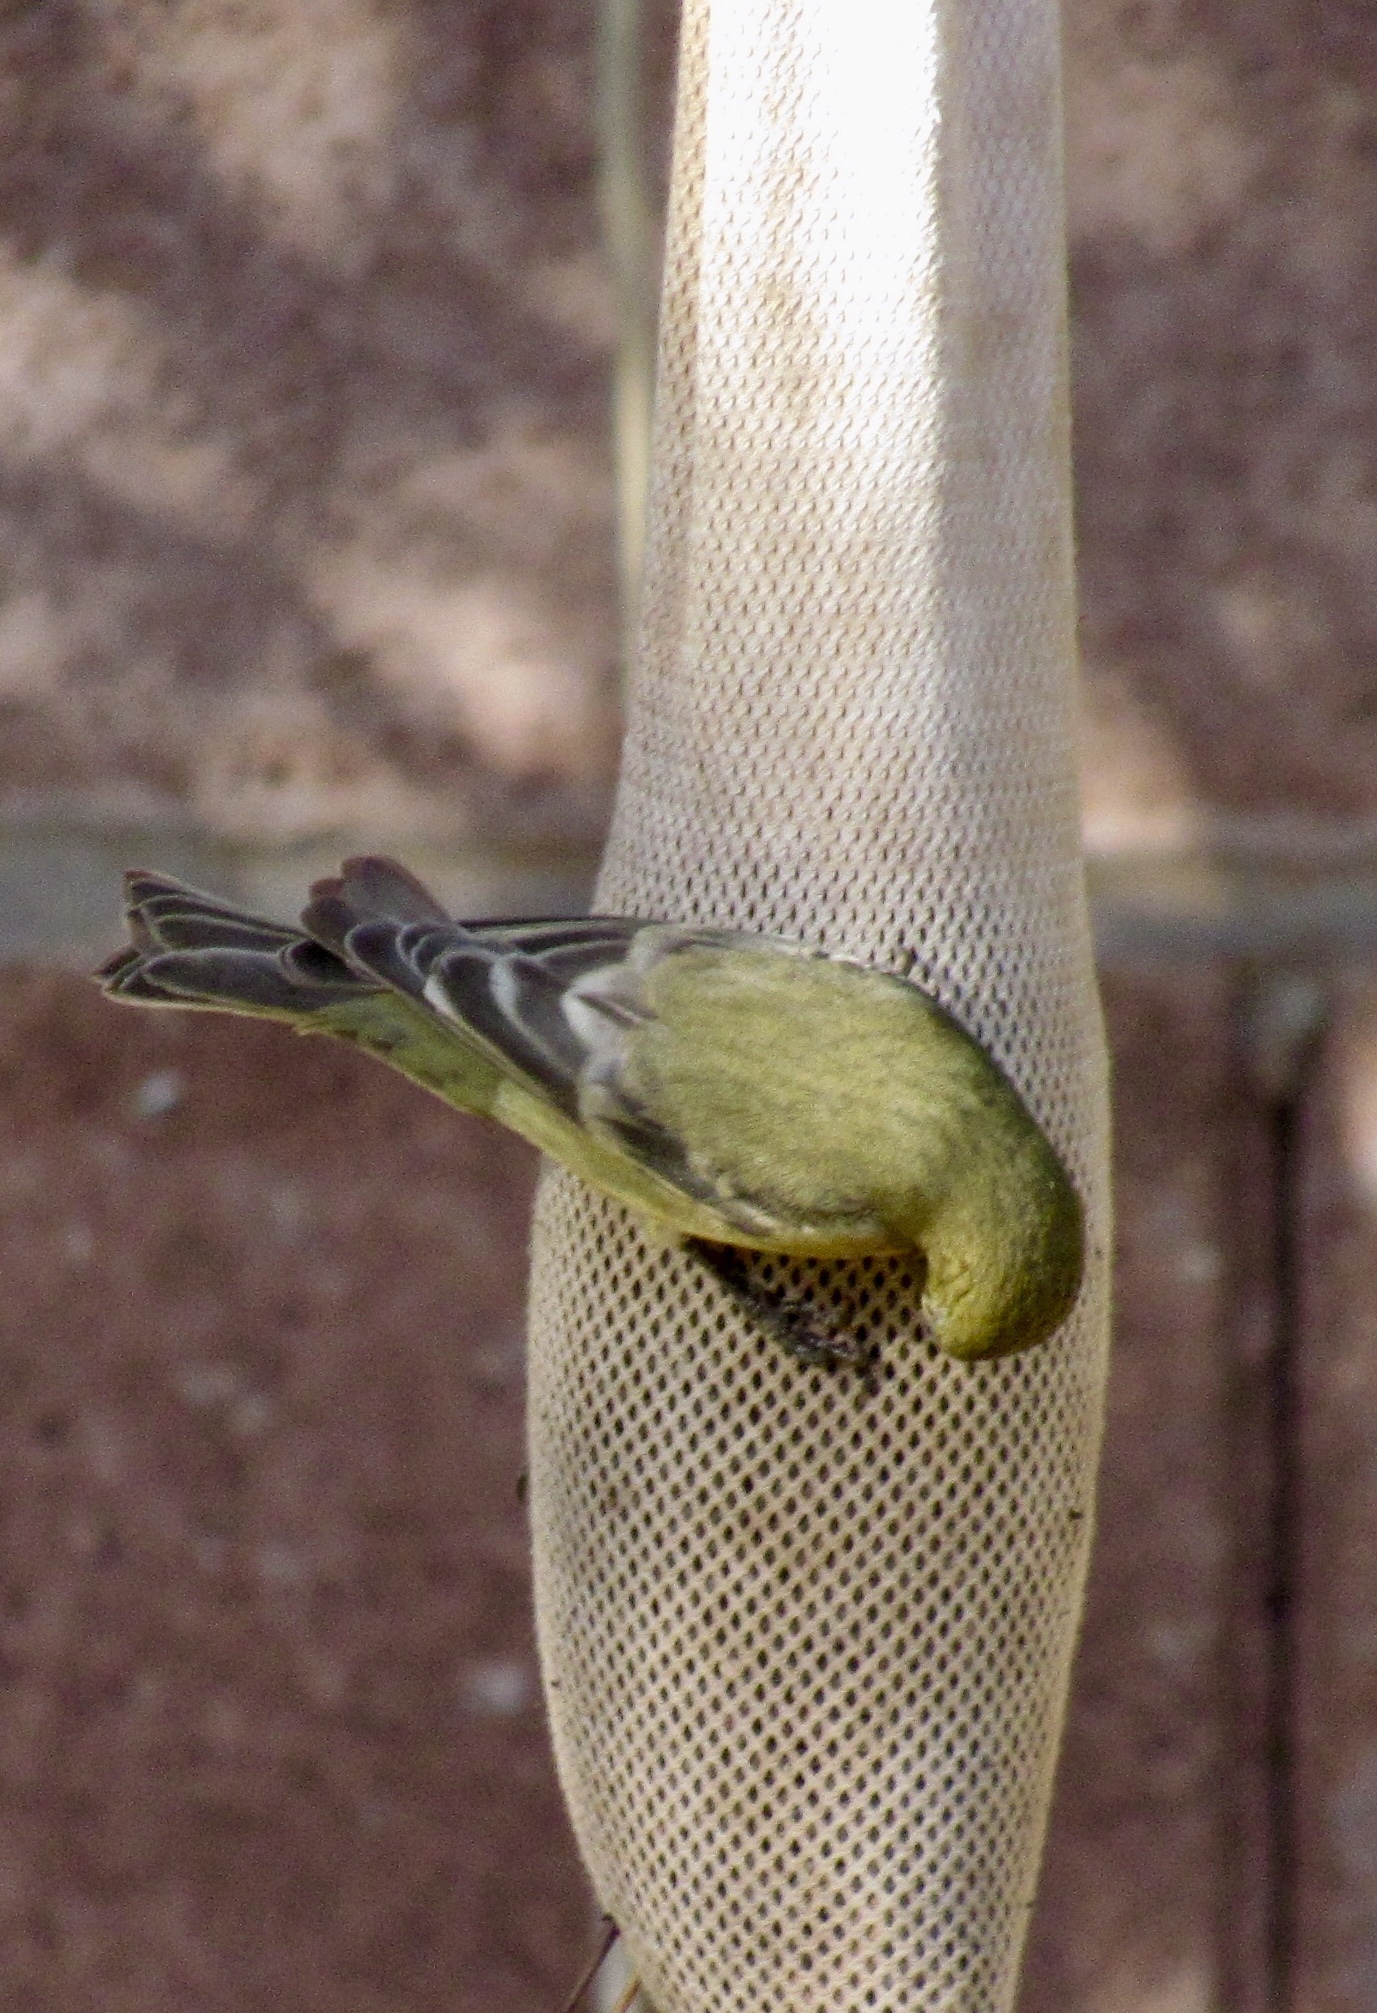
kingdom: Animalia
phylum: Chordata
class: Aves
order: Passeriformes
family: Fringillidae
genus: Spinus
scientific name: Spinus psaltria
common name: Lesser goldfinch
